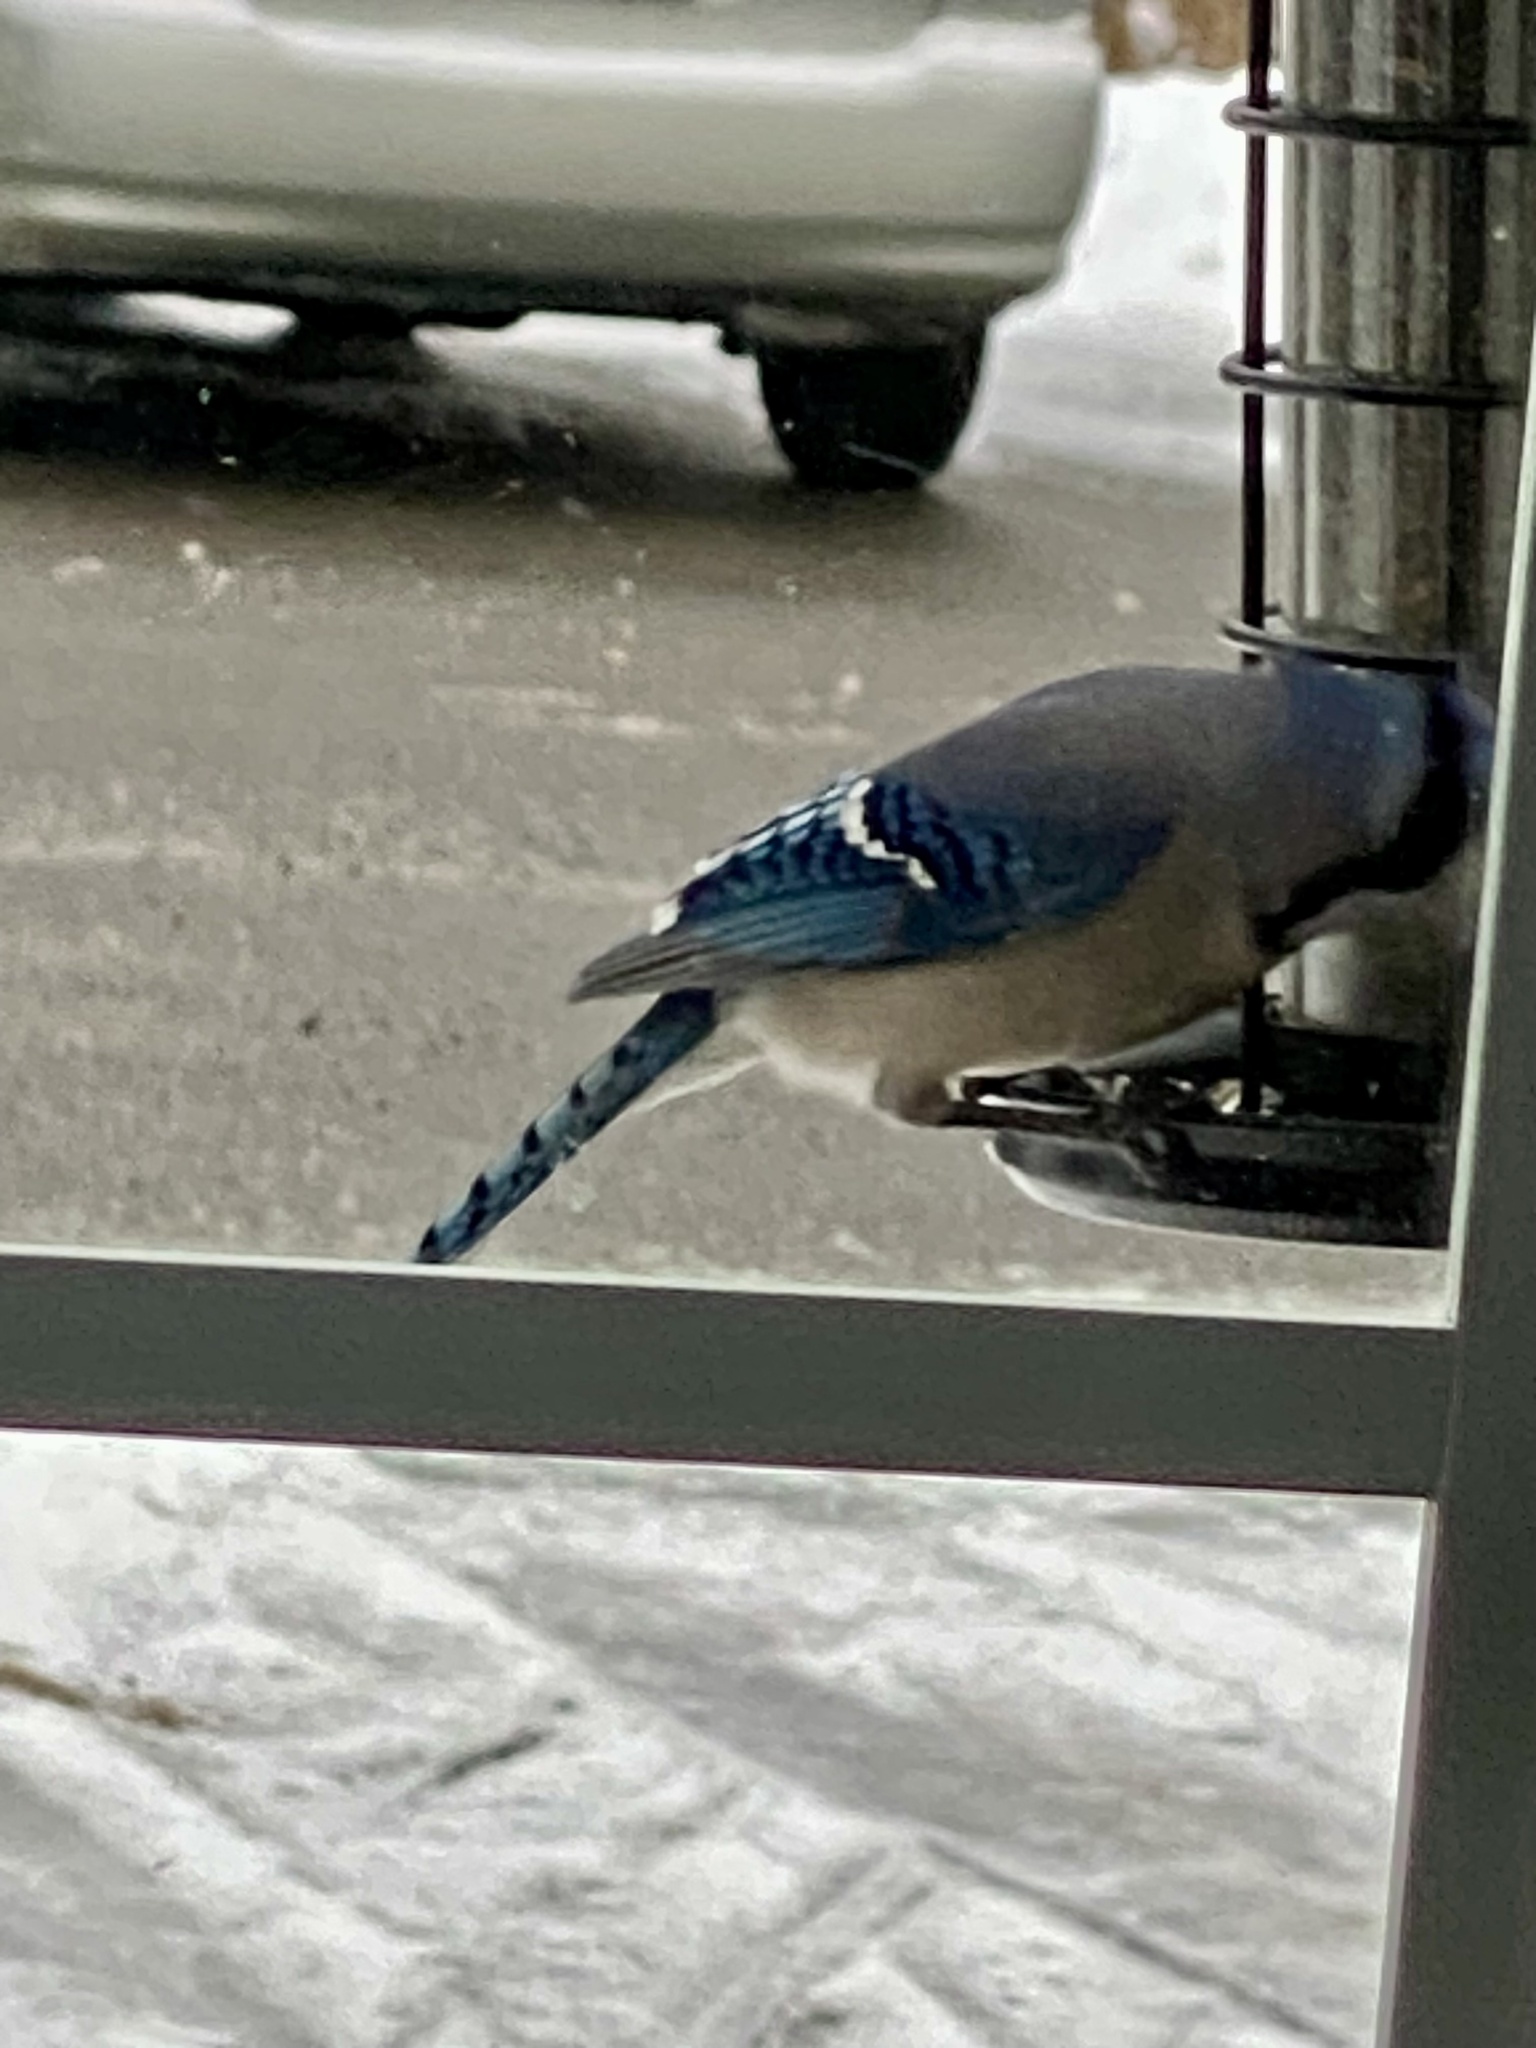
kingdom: Animalia
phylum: Chordata
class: Aves
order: Passeriformes
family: Corvidae
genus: Cyanocitta
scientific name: Cyanocitta cristata
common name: Blue jay
